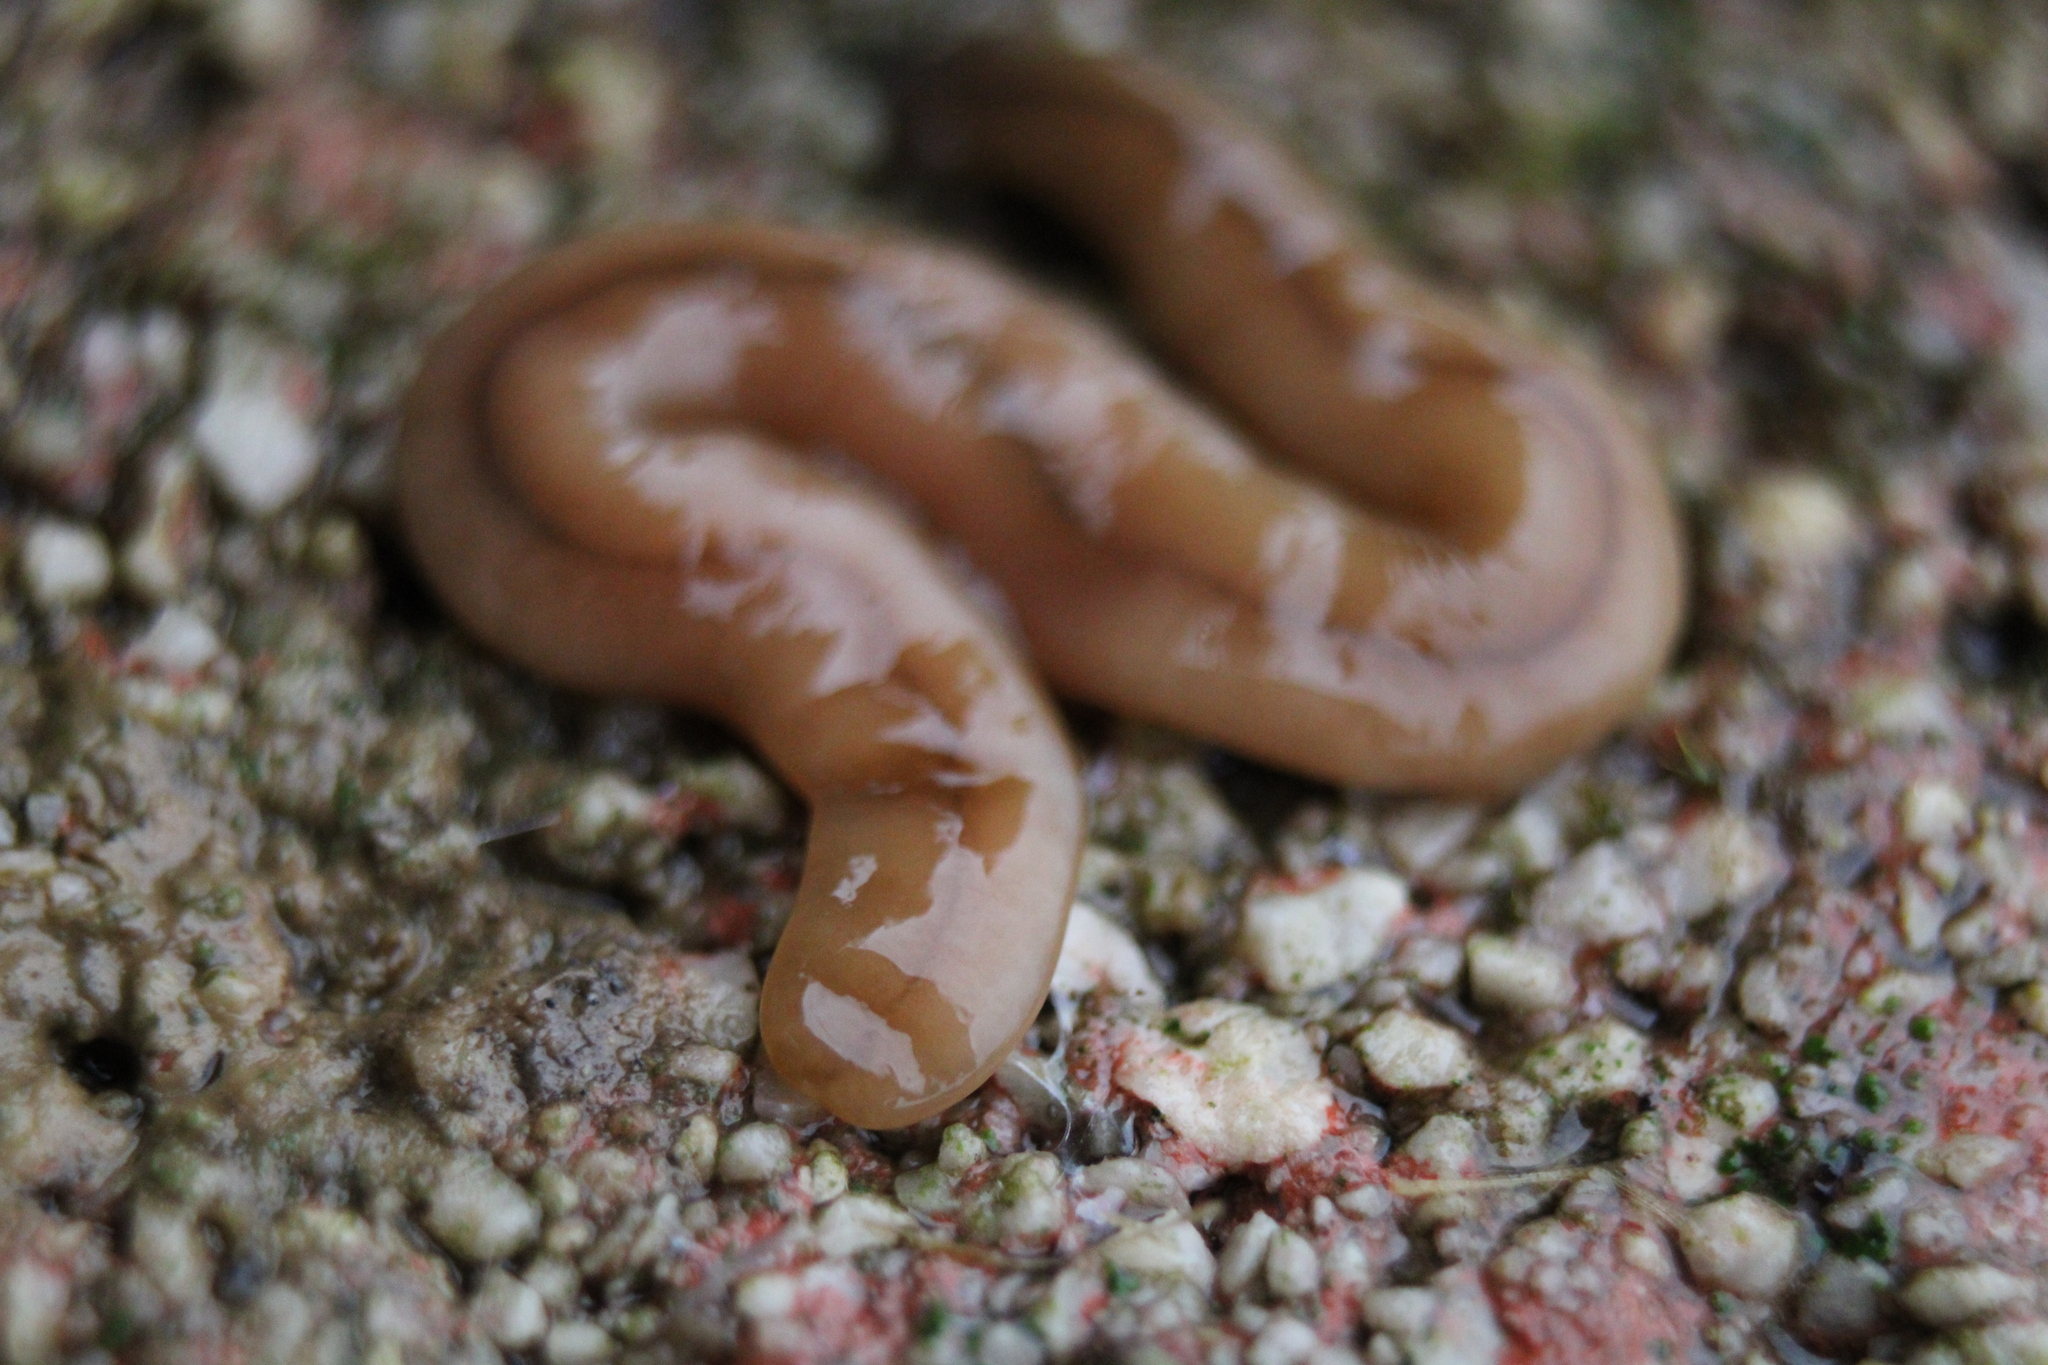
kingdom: Animalia
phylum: Platyhelminthes
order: Tricladida
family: Geoplanidae
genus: Bipalium
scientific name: Bipalium adventitium
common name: Land planarian
